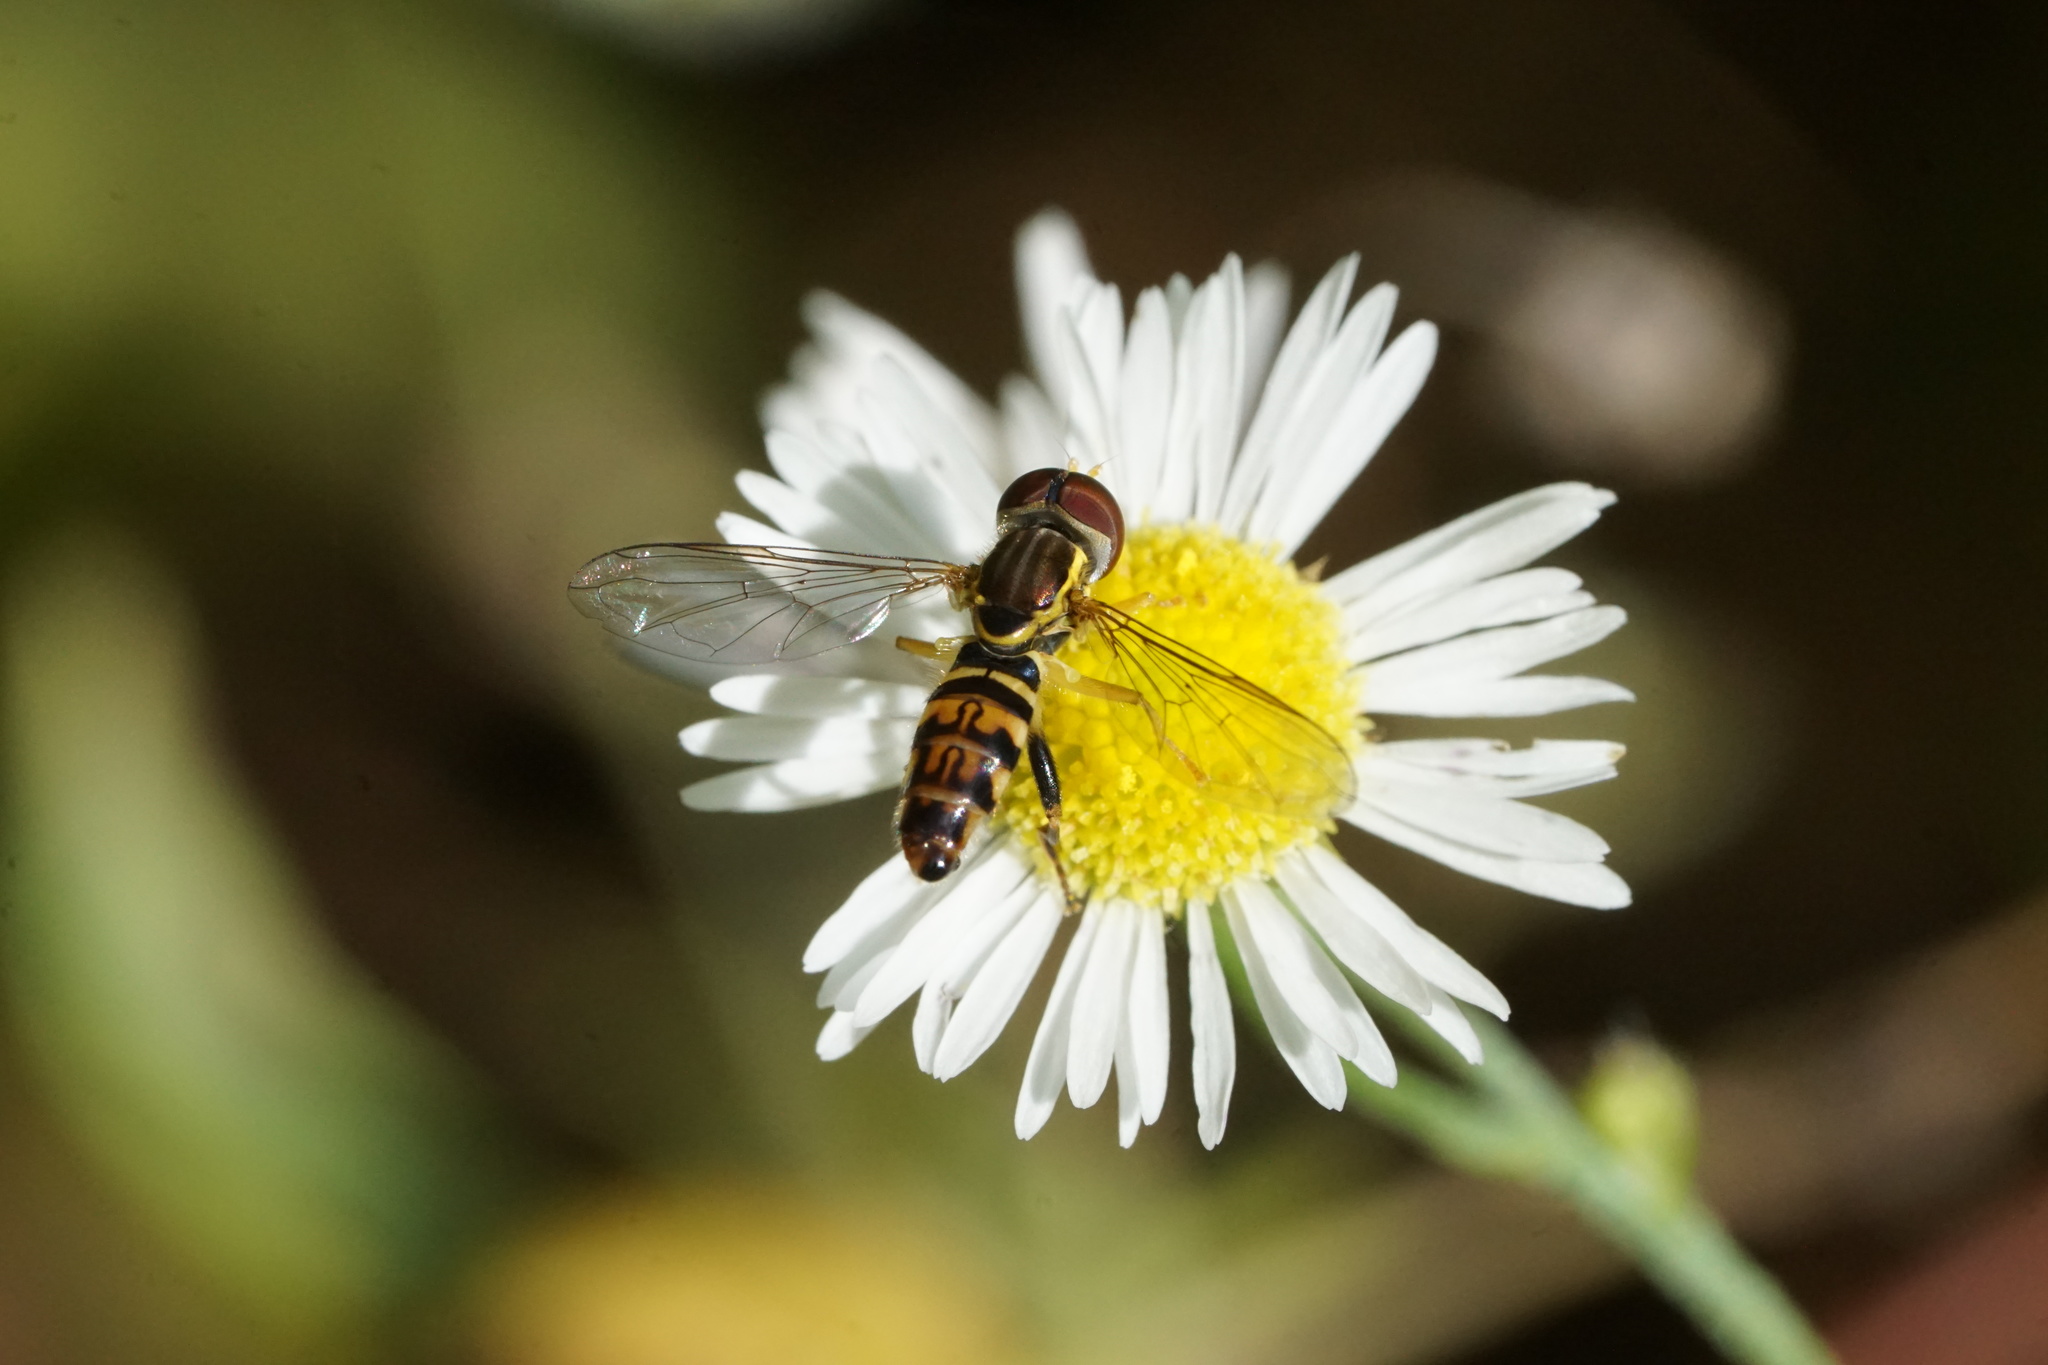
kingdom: Animalia
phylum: Arthropoda
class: Insecta
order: Diptera
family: Syrphidae
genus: Toxomerus
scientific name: Toxomerus geminatus
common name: Eastern calligrapher
